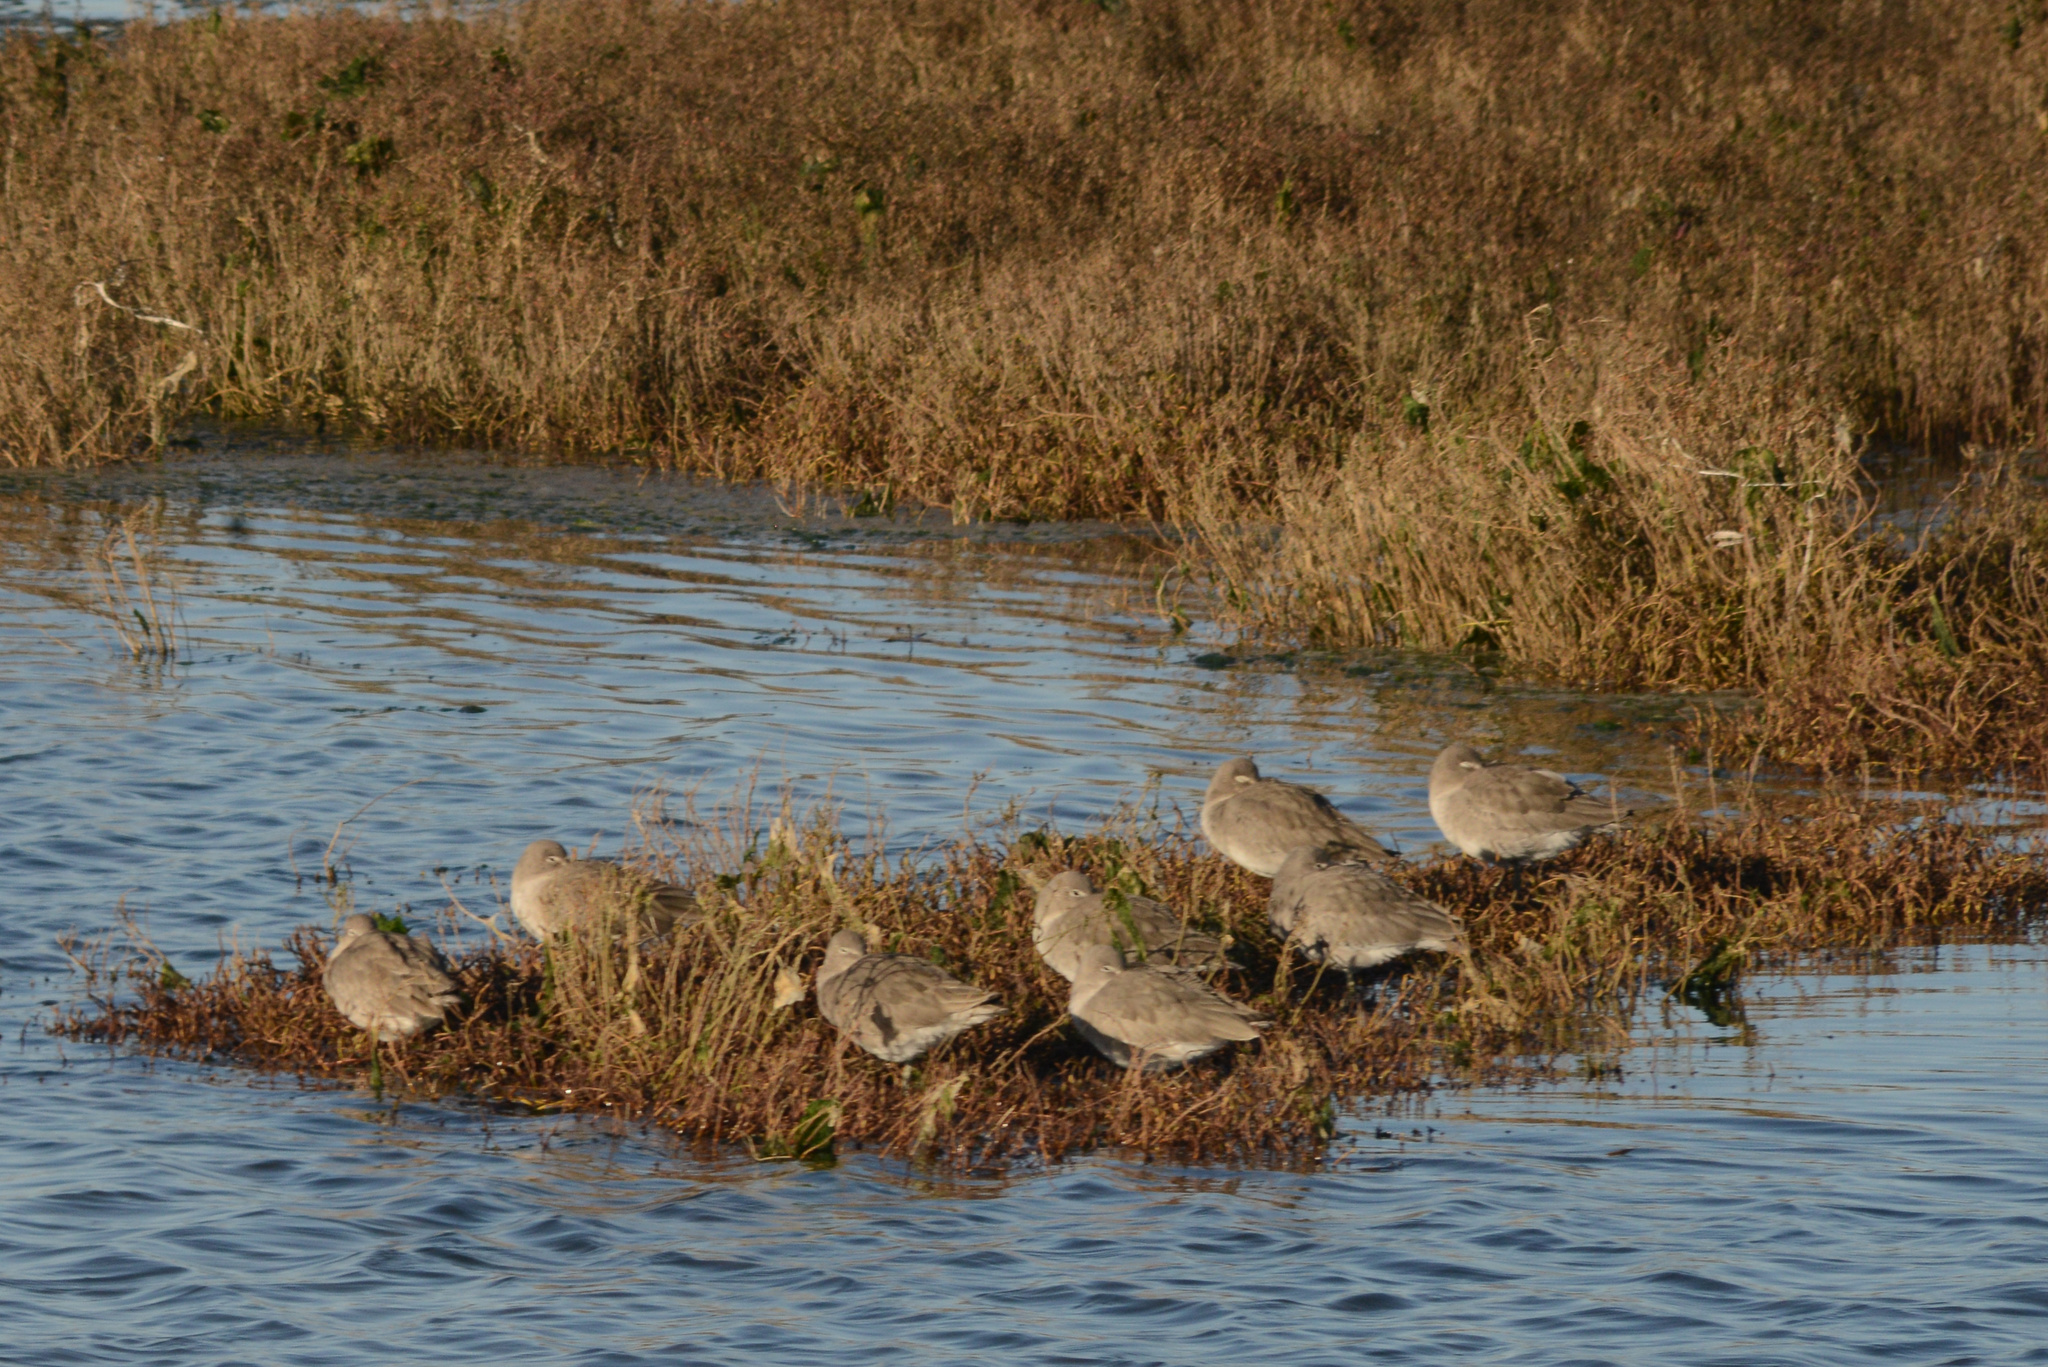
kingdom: Animalia
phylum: Chordata
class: Aves
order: Charadriiformes
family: Scolopacidae
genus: Tringa
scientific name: Tringa semipalmata
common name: Willet
